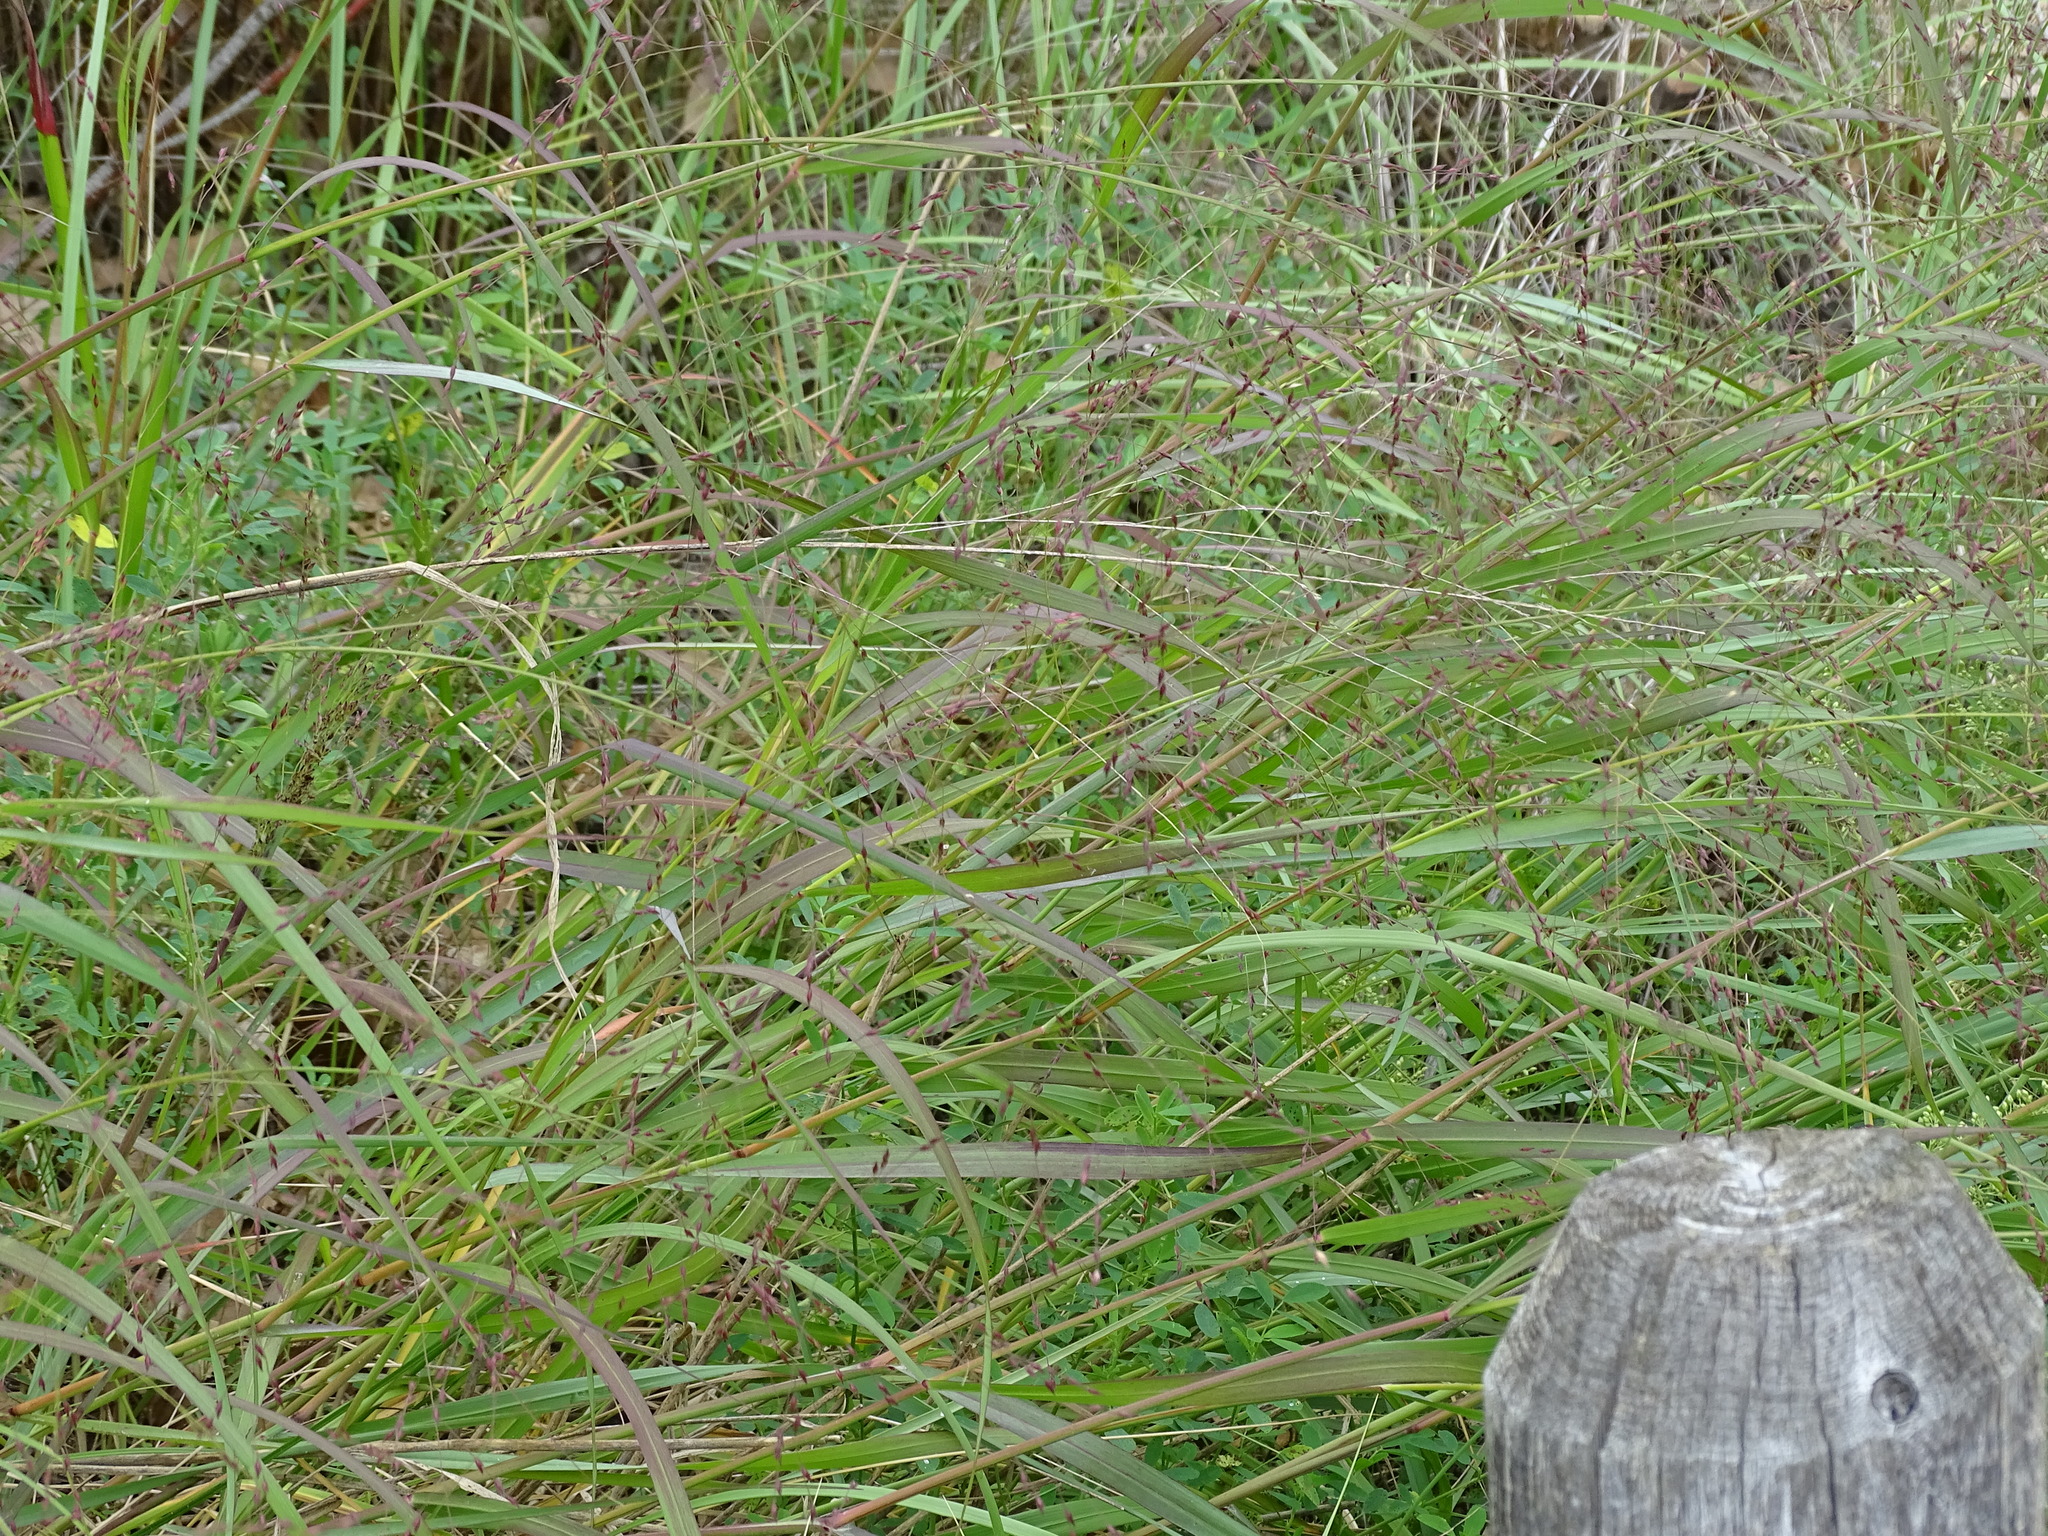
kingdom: Plantae
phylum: Tracheophyta
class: Liliopsida
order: Poales
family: Poaceae
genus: Panicum
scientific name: Panicum virgatum
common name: Switchgrass
